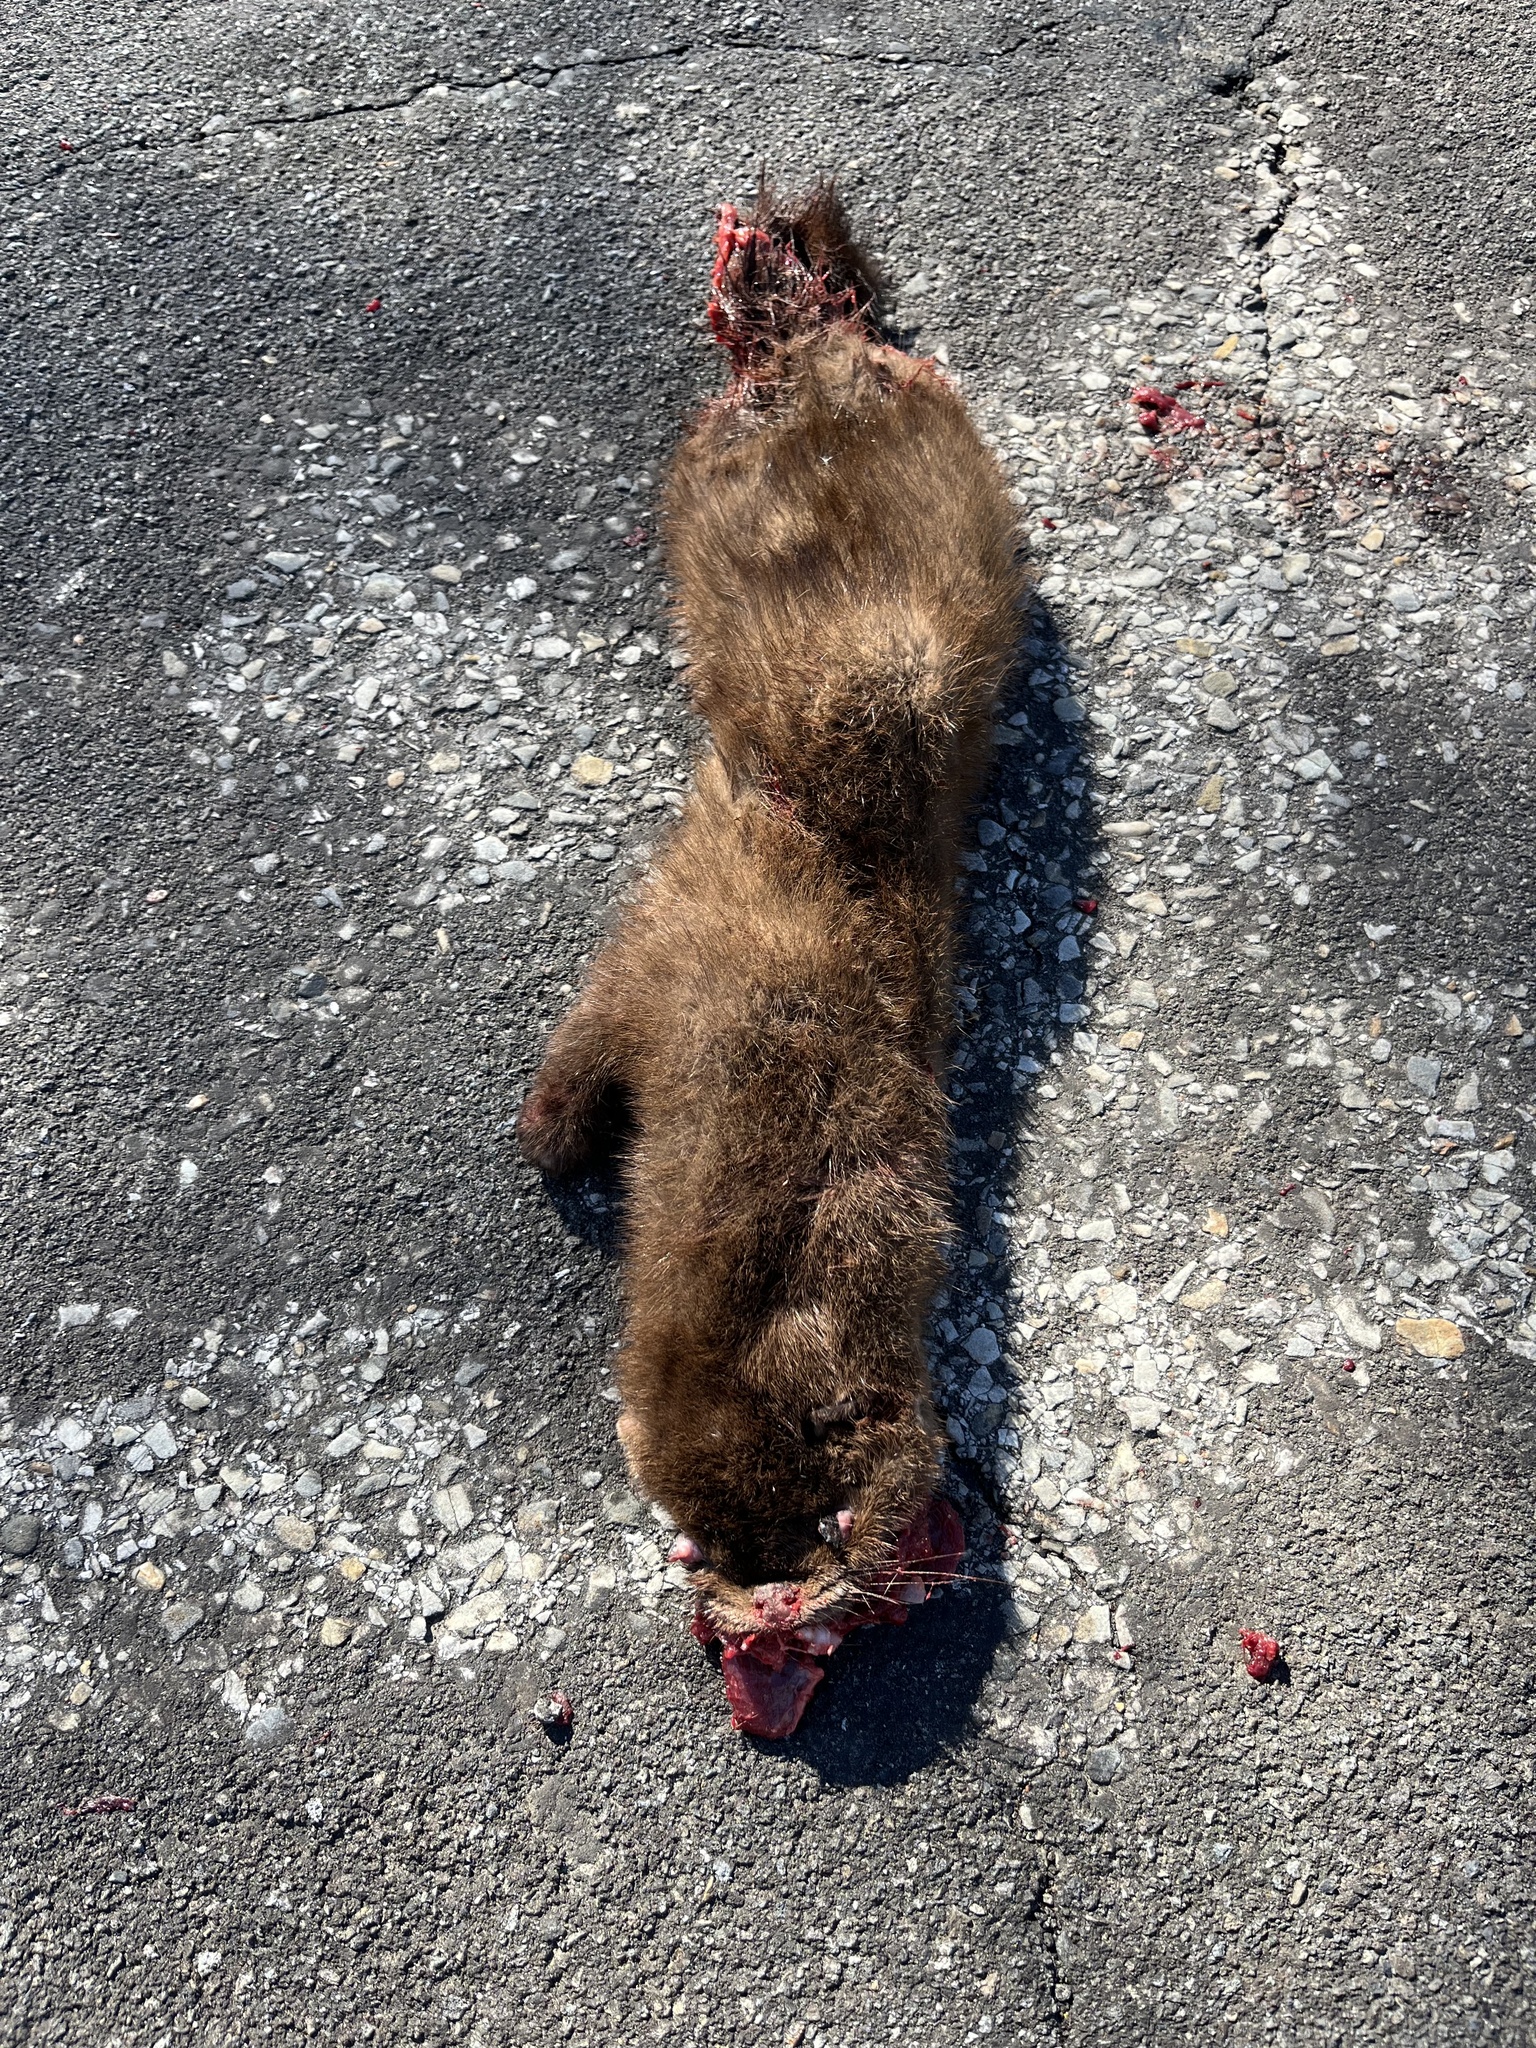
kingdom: Animalia
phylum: Chordata
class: Mammalia
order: Carnivora
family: Mustelidae
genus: Mustela
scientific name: Mustela
